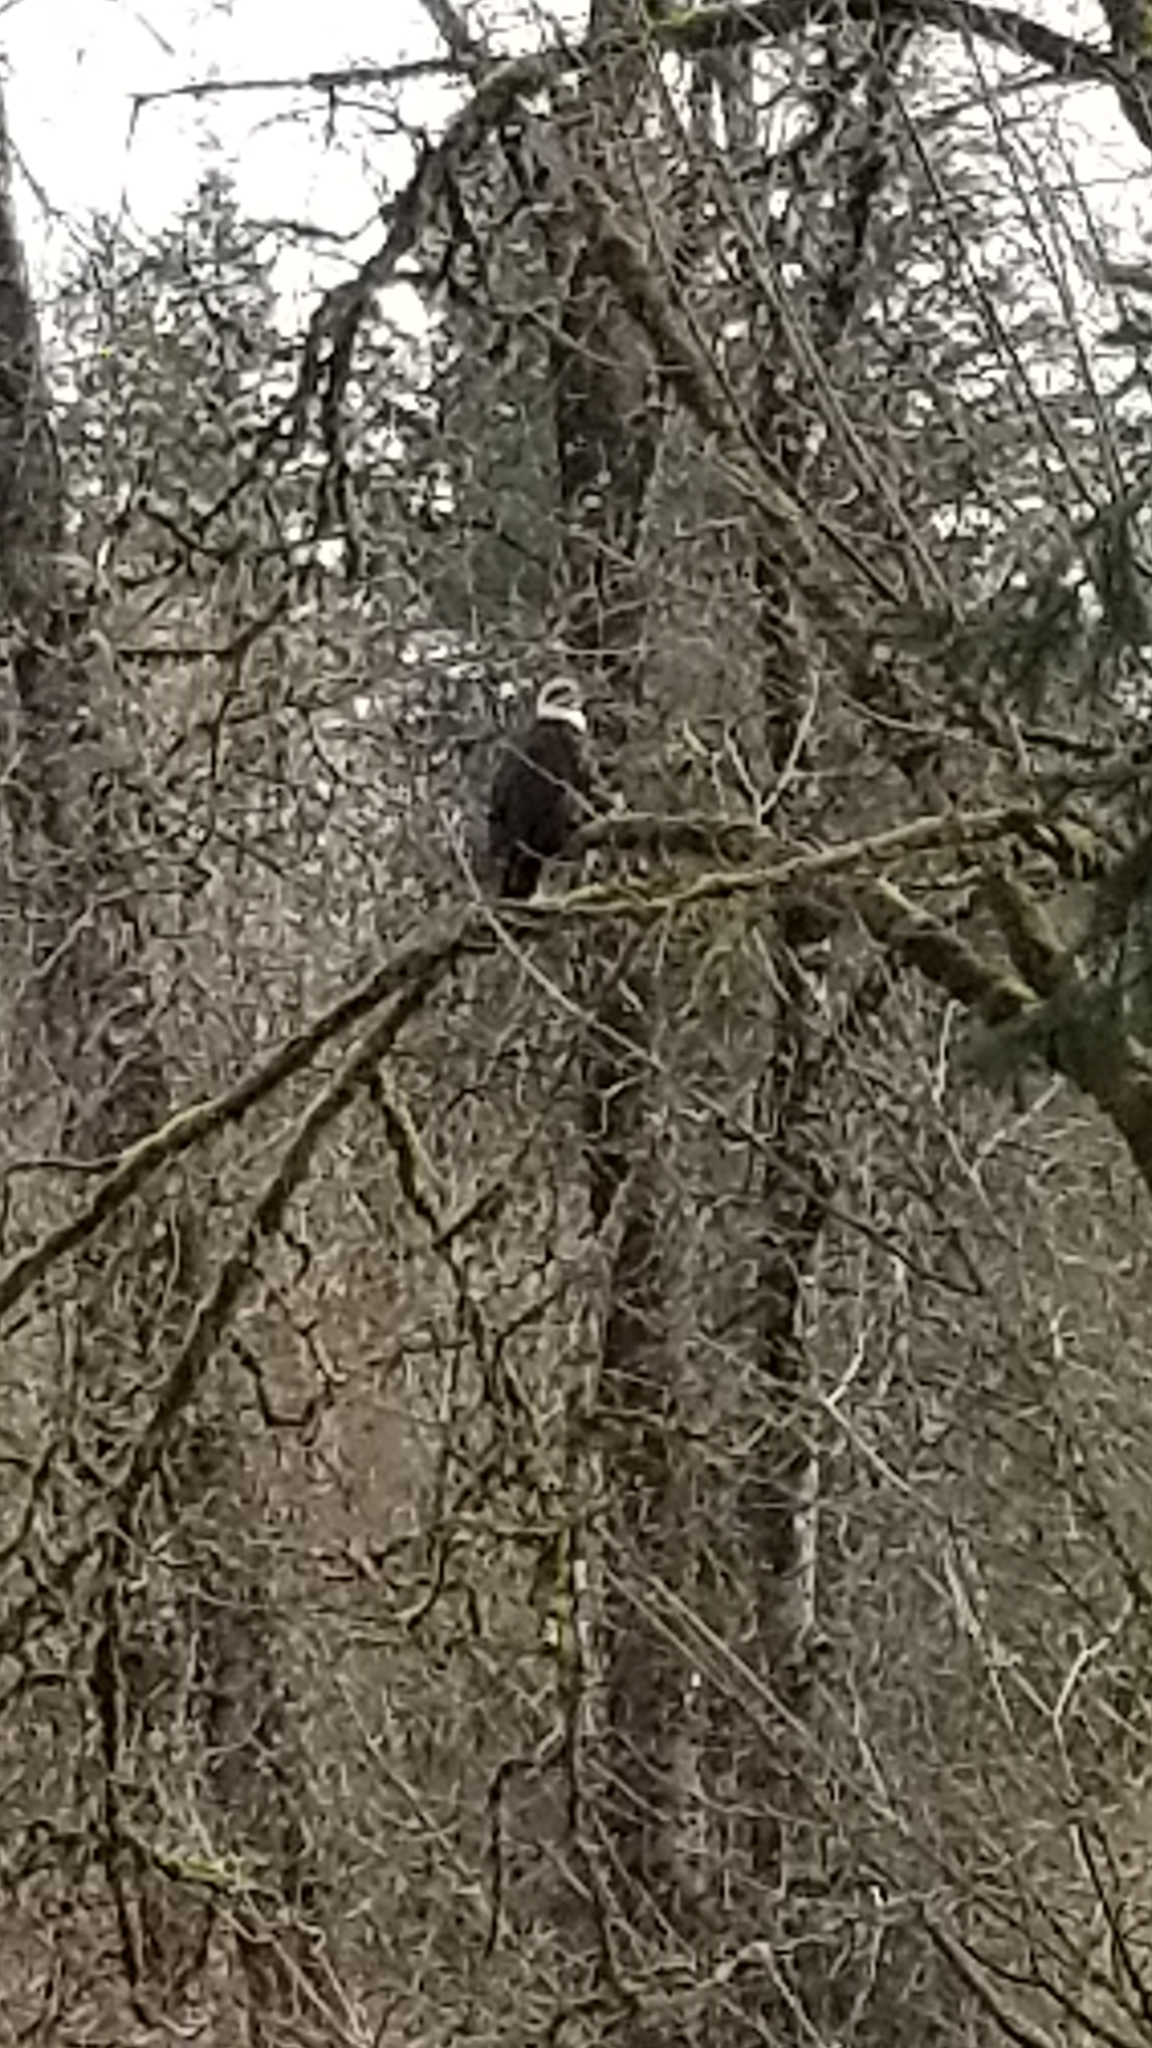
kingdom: Animalia
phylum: Chordata
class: Aves
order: Accipitriformes
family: Accipitridae
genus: Haliaeetus
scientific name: Haliaeetus leucocephalus
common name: Bald eagle
